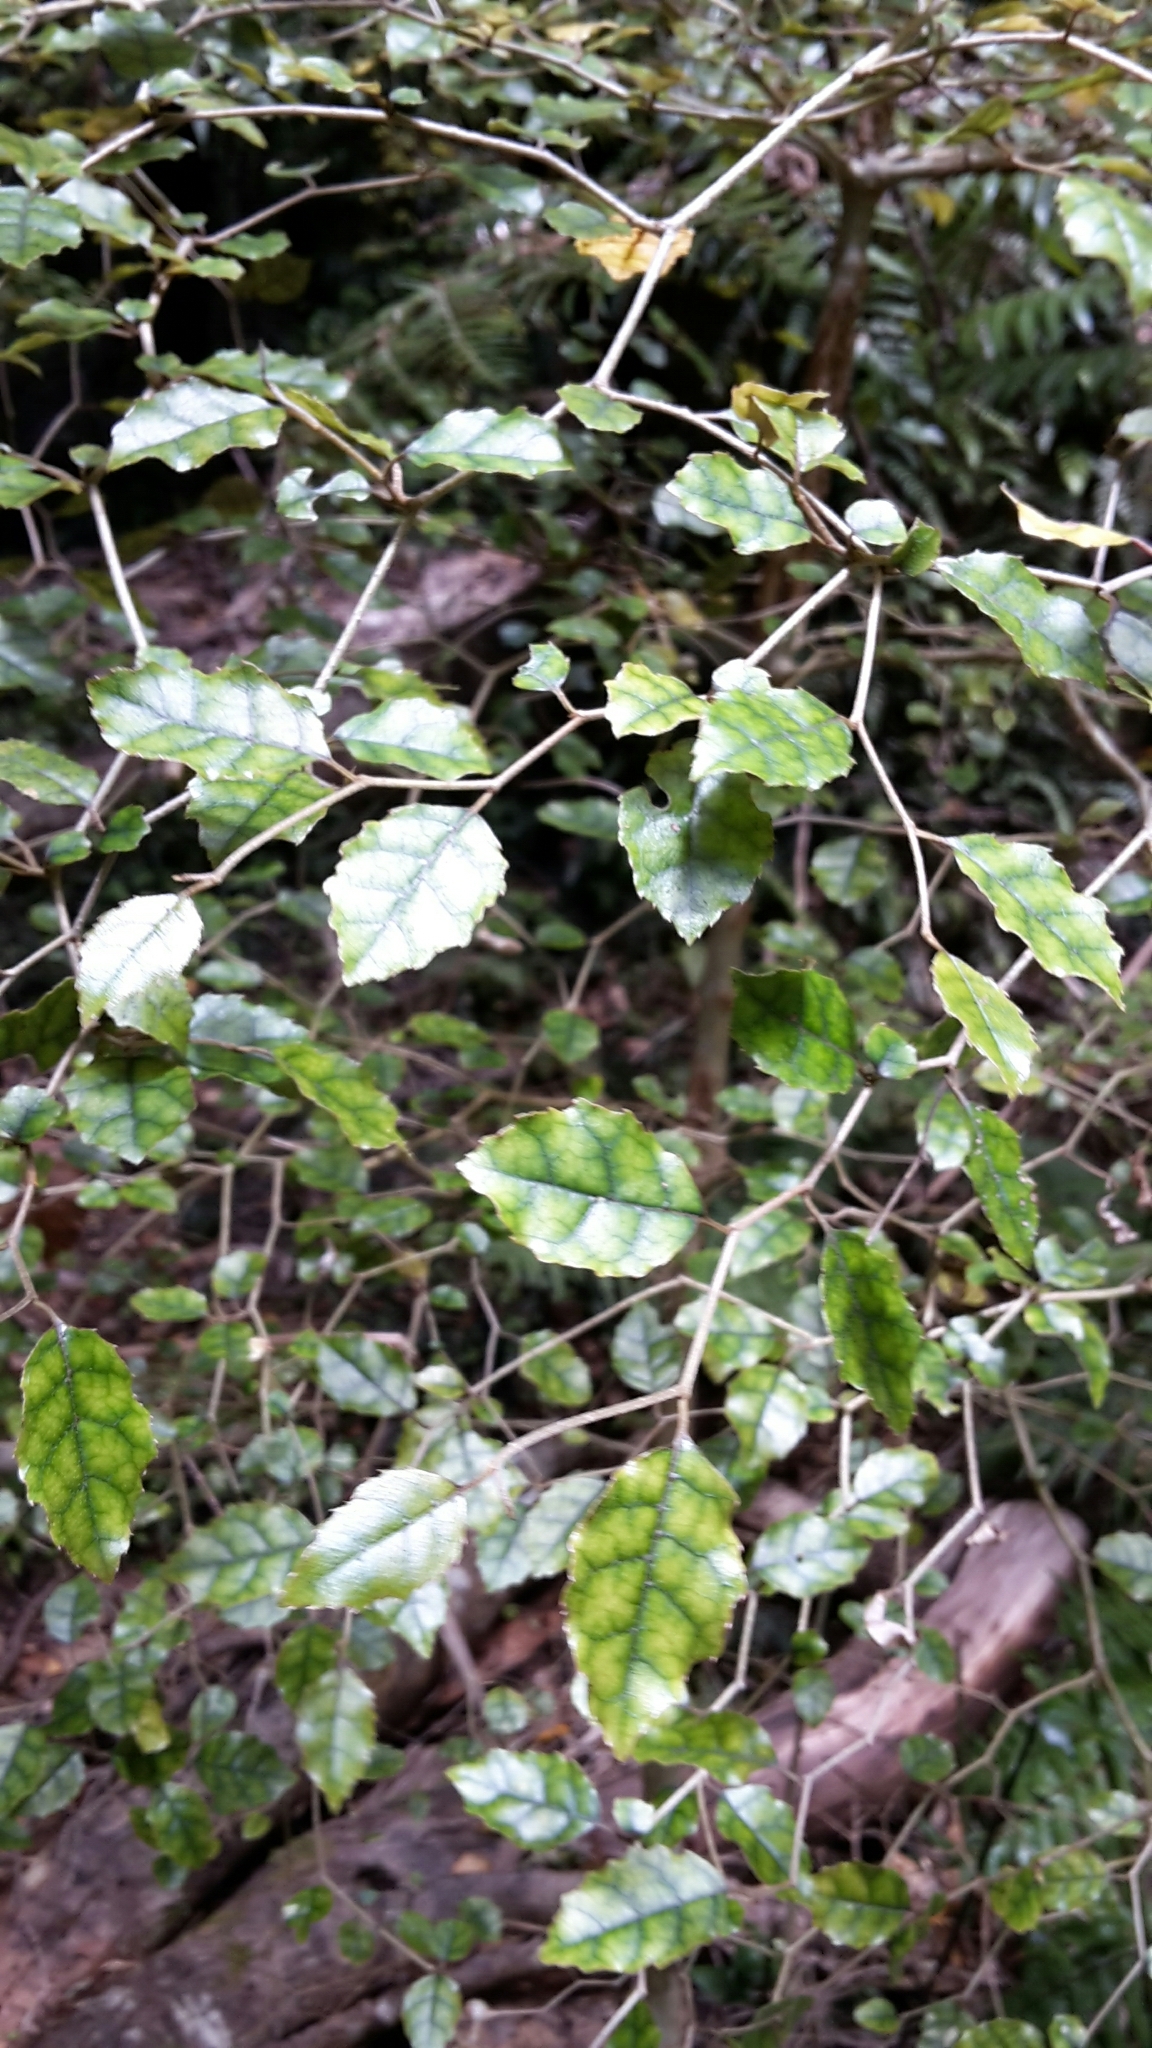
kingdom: Plantae
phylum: Tracheophyta
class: Magnoliopsida
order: Asterales
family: Rousseaceae
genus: Carpodetus
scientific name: Carpodetus serratus
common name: White mapau
